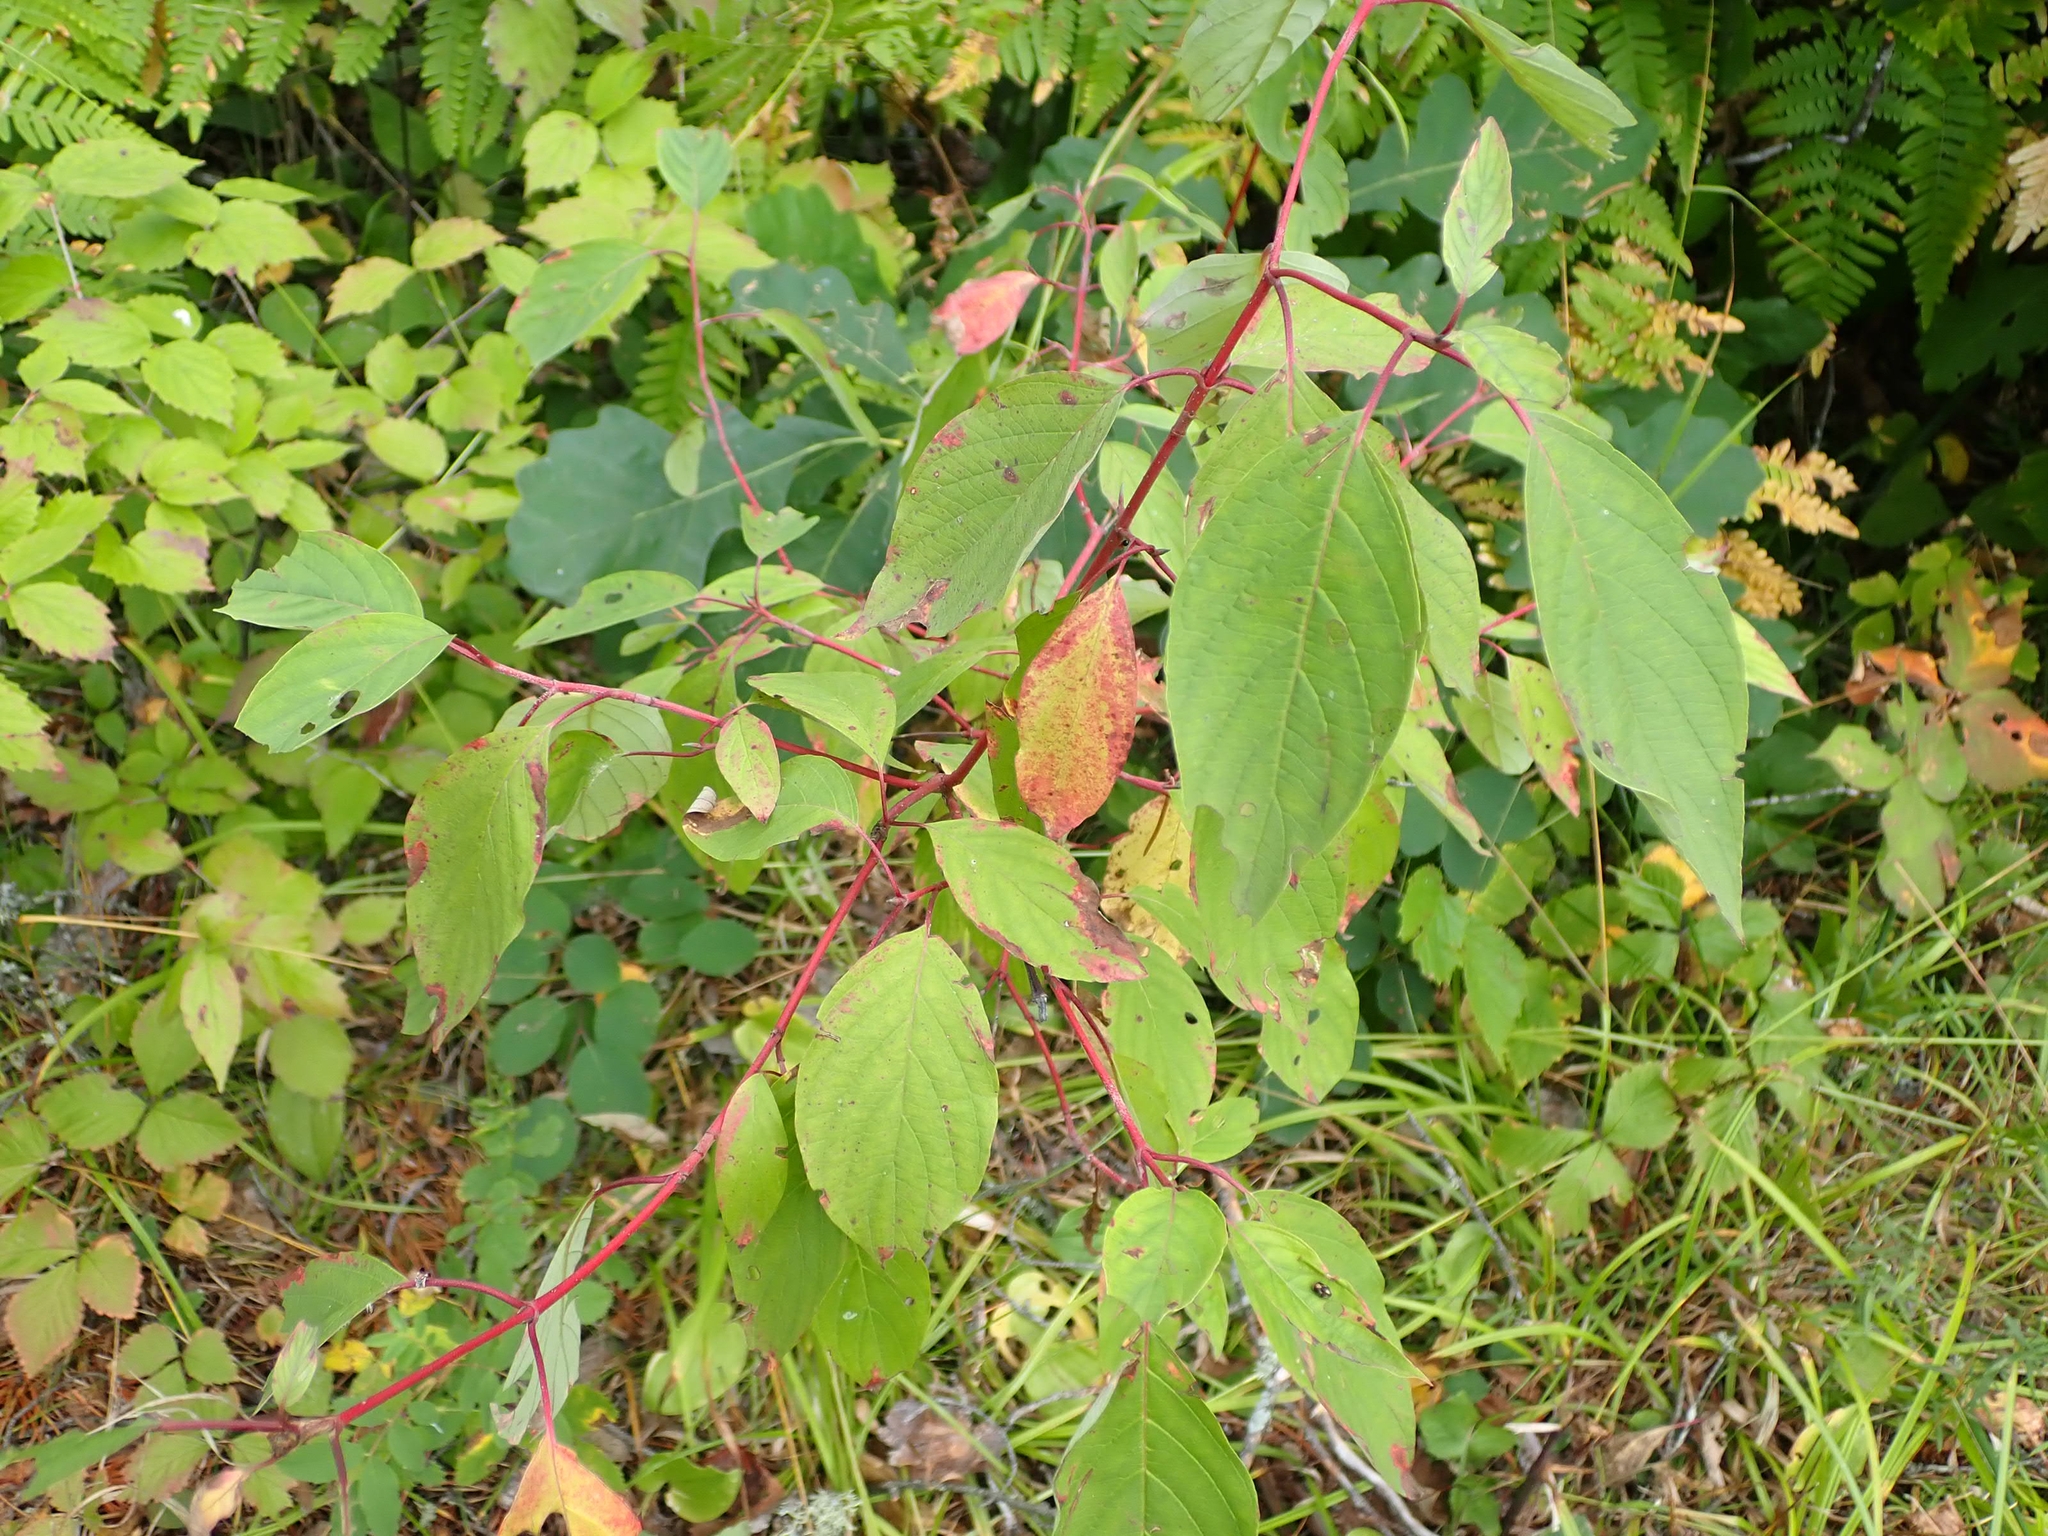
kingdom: Plantae
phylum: Tracheophyta
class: Magnoliopsida
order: Cornales
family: Cornaceae
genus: Cornus
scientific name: Cornus sericea
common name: Red-osier dogwood
